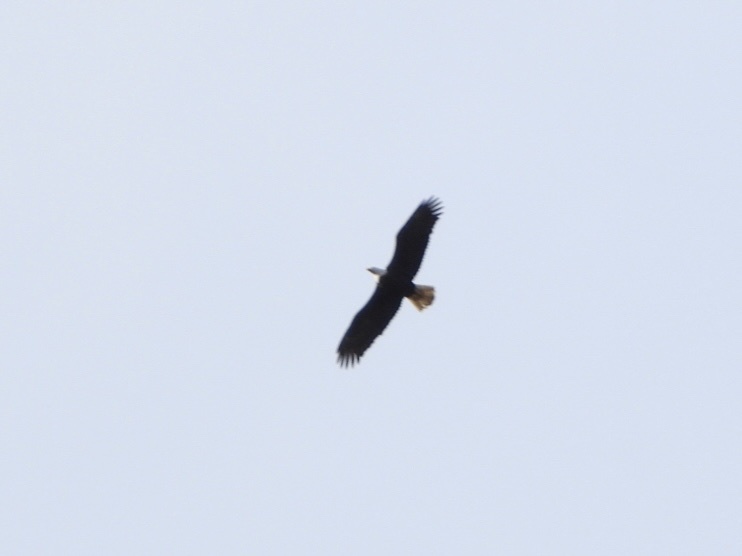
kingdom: Animalia
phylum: Chordata
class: Aves
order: Accipitriformes
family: Accipitridae
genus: Haliaeetus
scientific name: Haliaeetus leucocephalus
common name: Bald eagle
